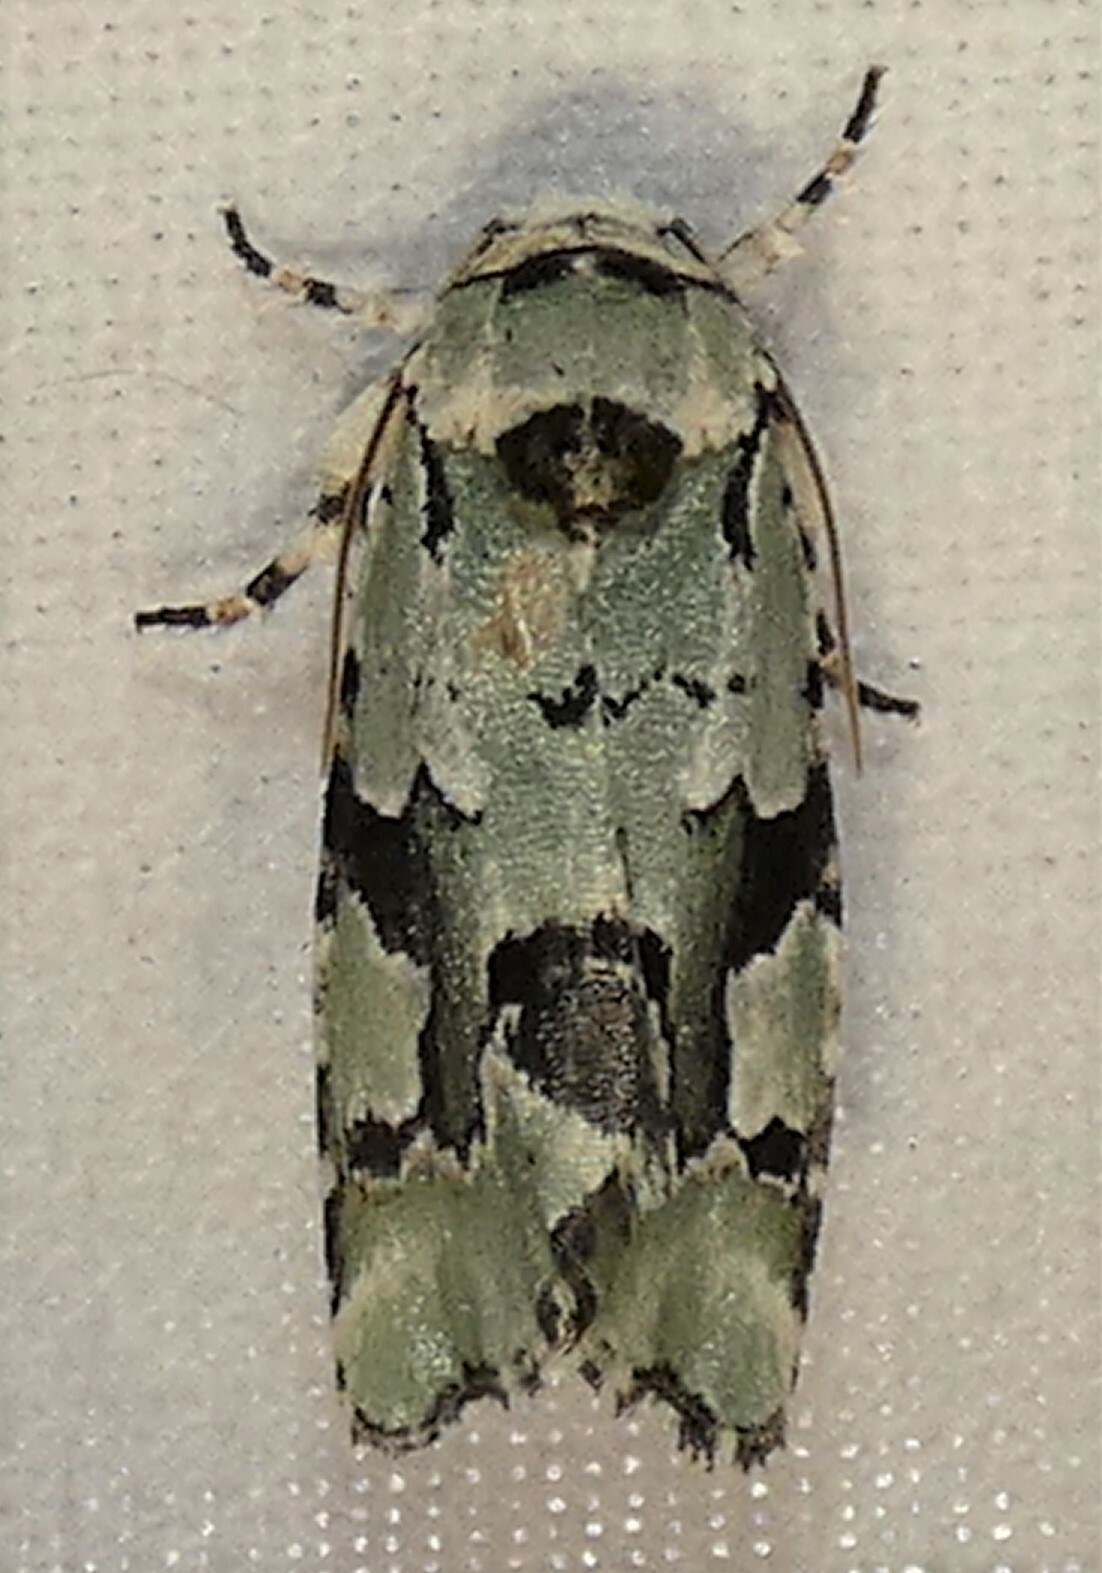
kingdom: Animalia
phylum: Arthropoda
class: Insecta
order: Lepidoptera
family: Noctuidae
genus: Emarginea
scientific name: Emarginea percara
